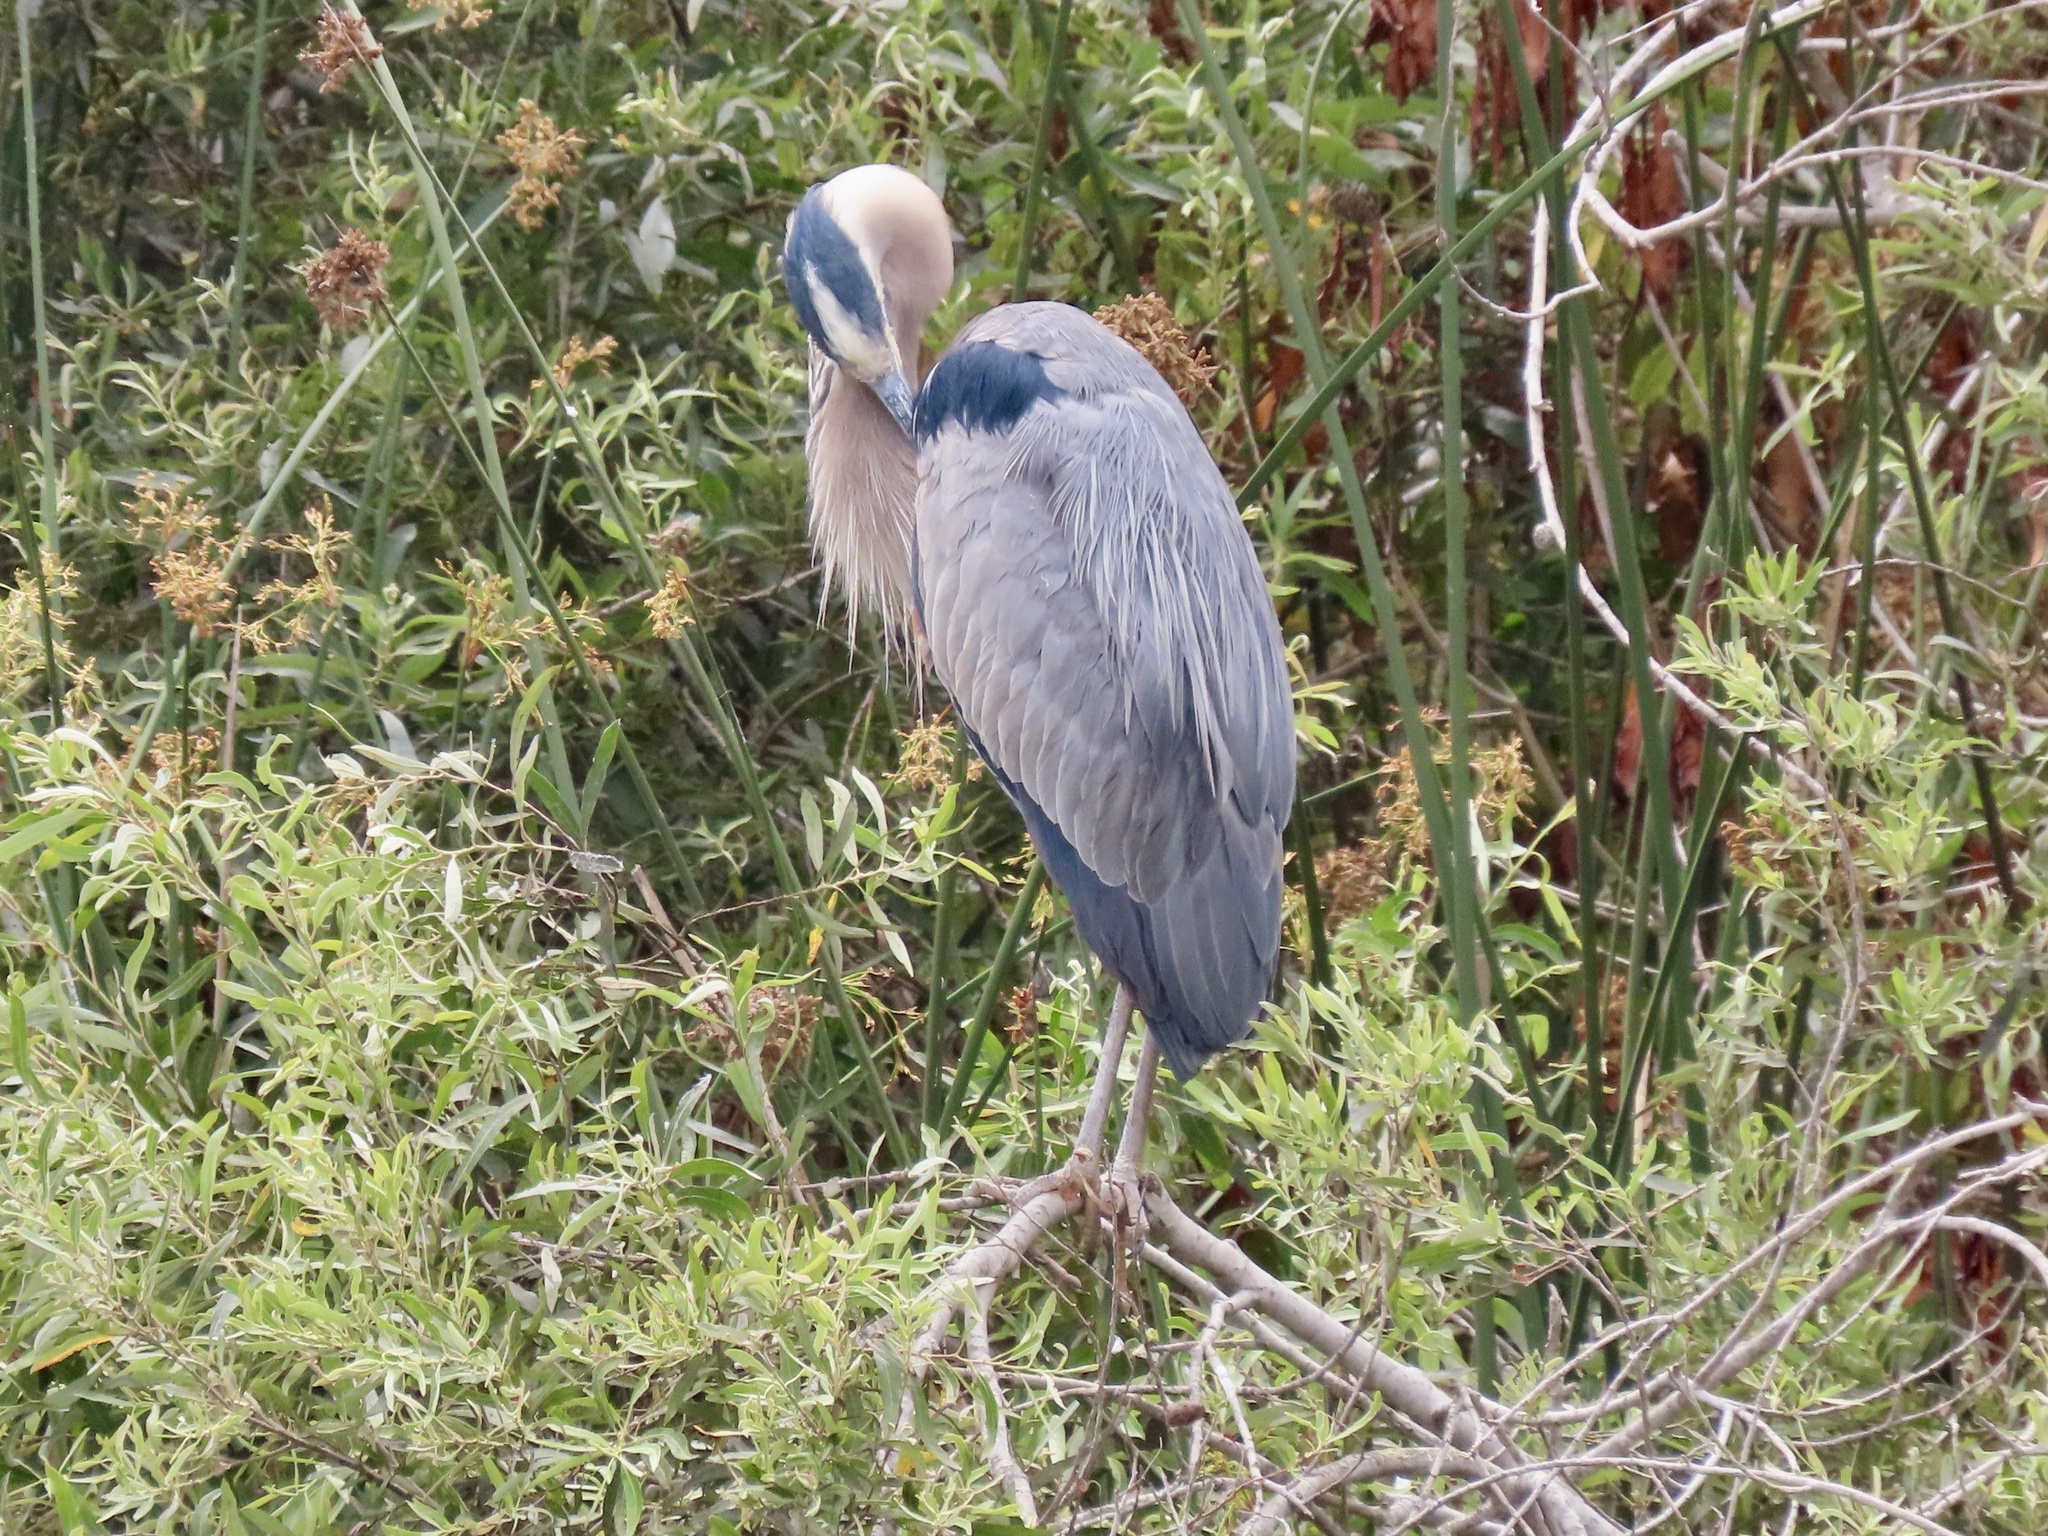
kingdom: Animalia
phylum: Chordata
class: Aves
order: Pelecaniformes
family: Ardeidae
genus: Ardea
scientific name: Ardea herodias
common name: Great blue heron
